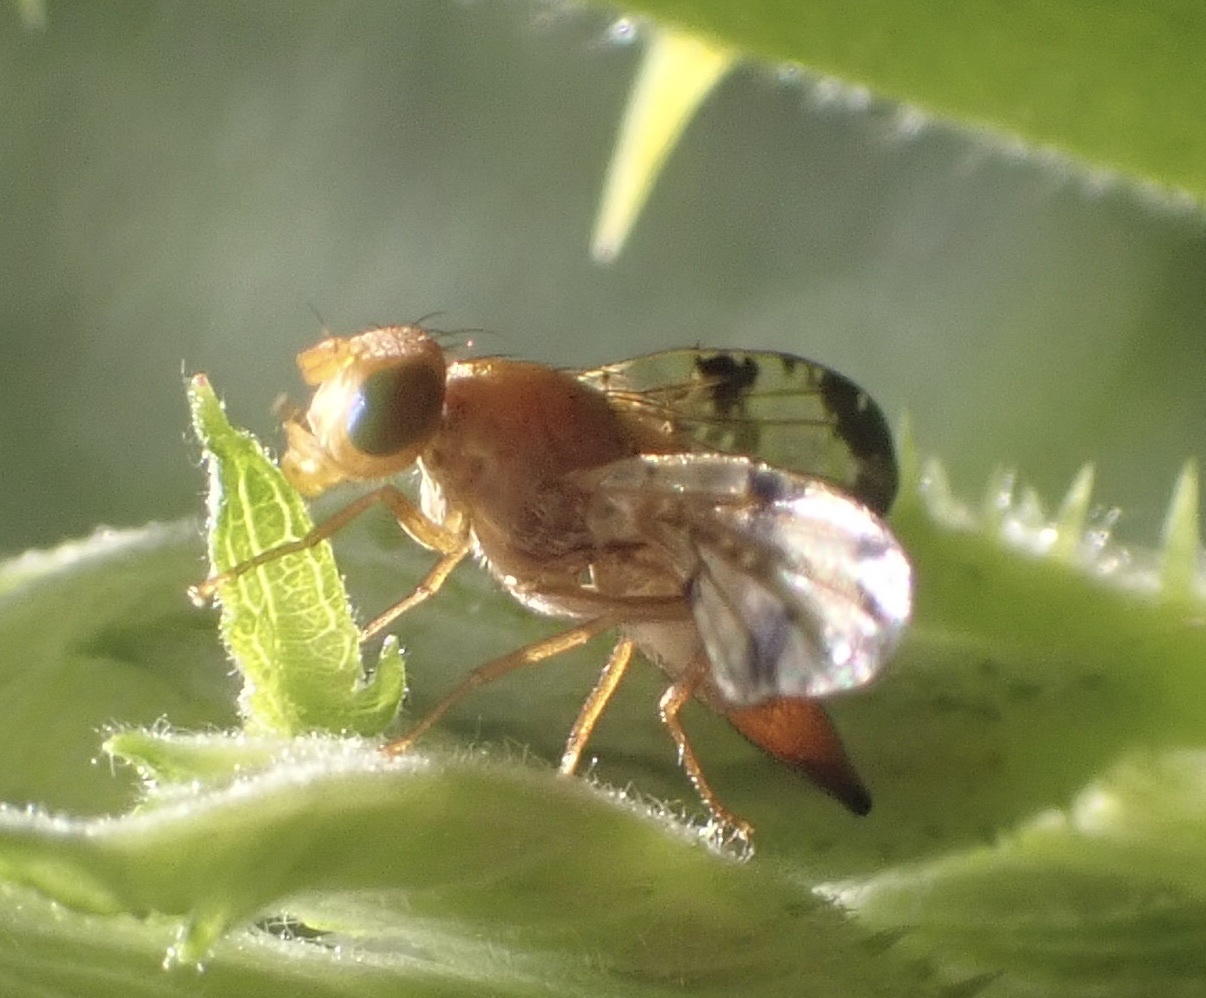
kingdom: Animalia
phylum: Arthropoda
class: Insecta
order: Diptera
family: Tephritidae
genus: Xyphosia
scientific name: Xyphosia miliaria
